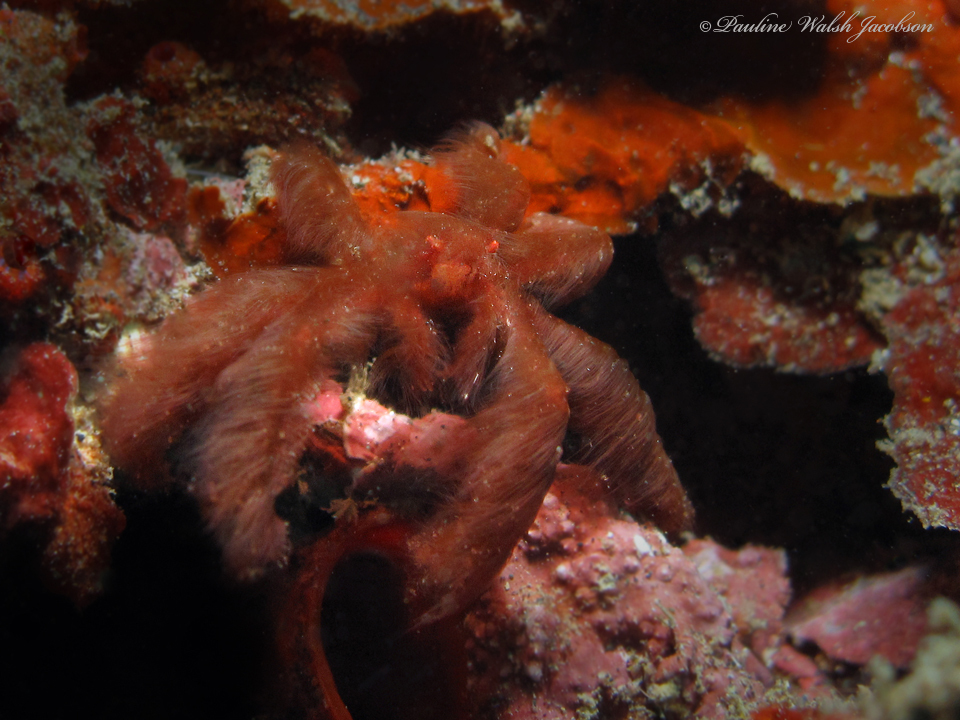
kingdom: Animalia
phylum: Arthropoda
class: Malacostraca
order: Decapoda
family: Inachidae
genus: Achaeus
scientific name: Achaeus japonicus
